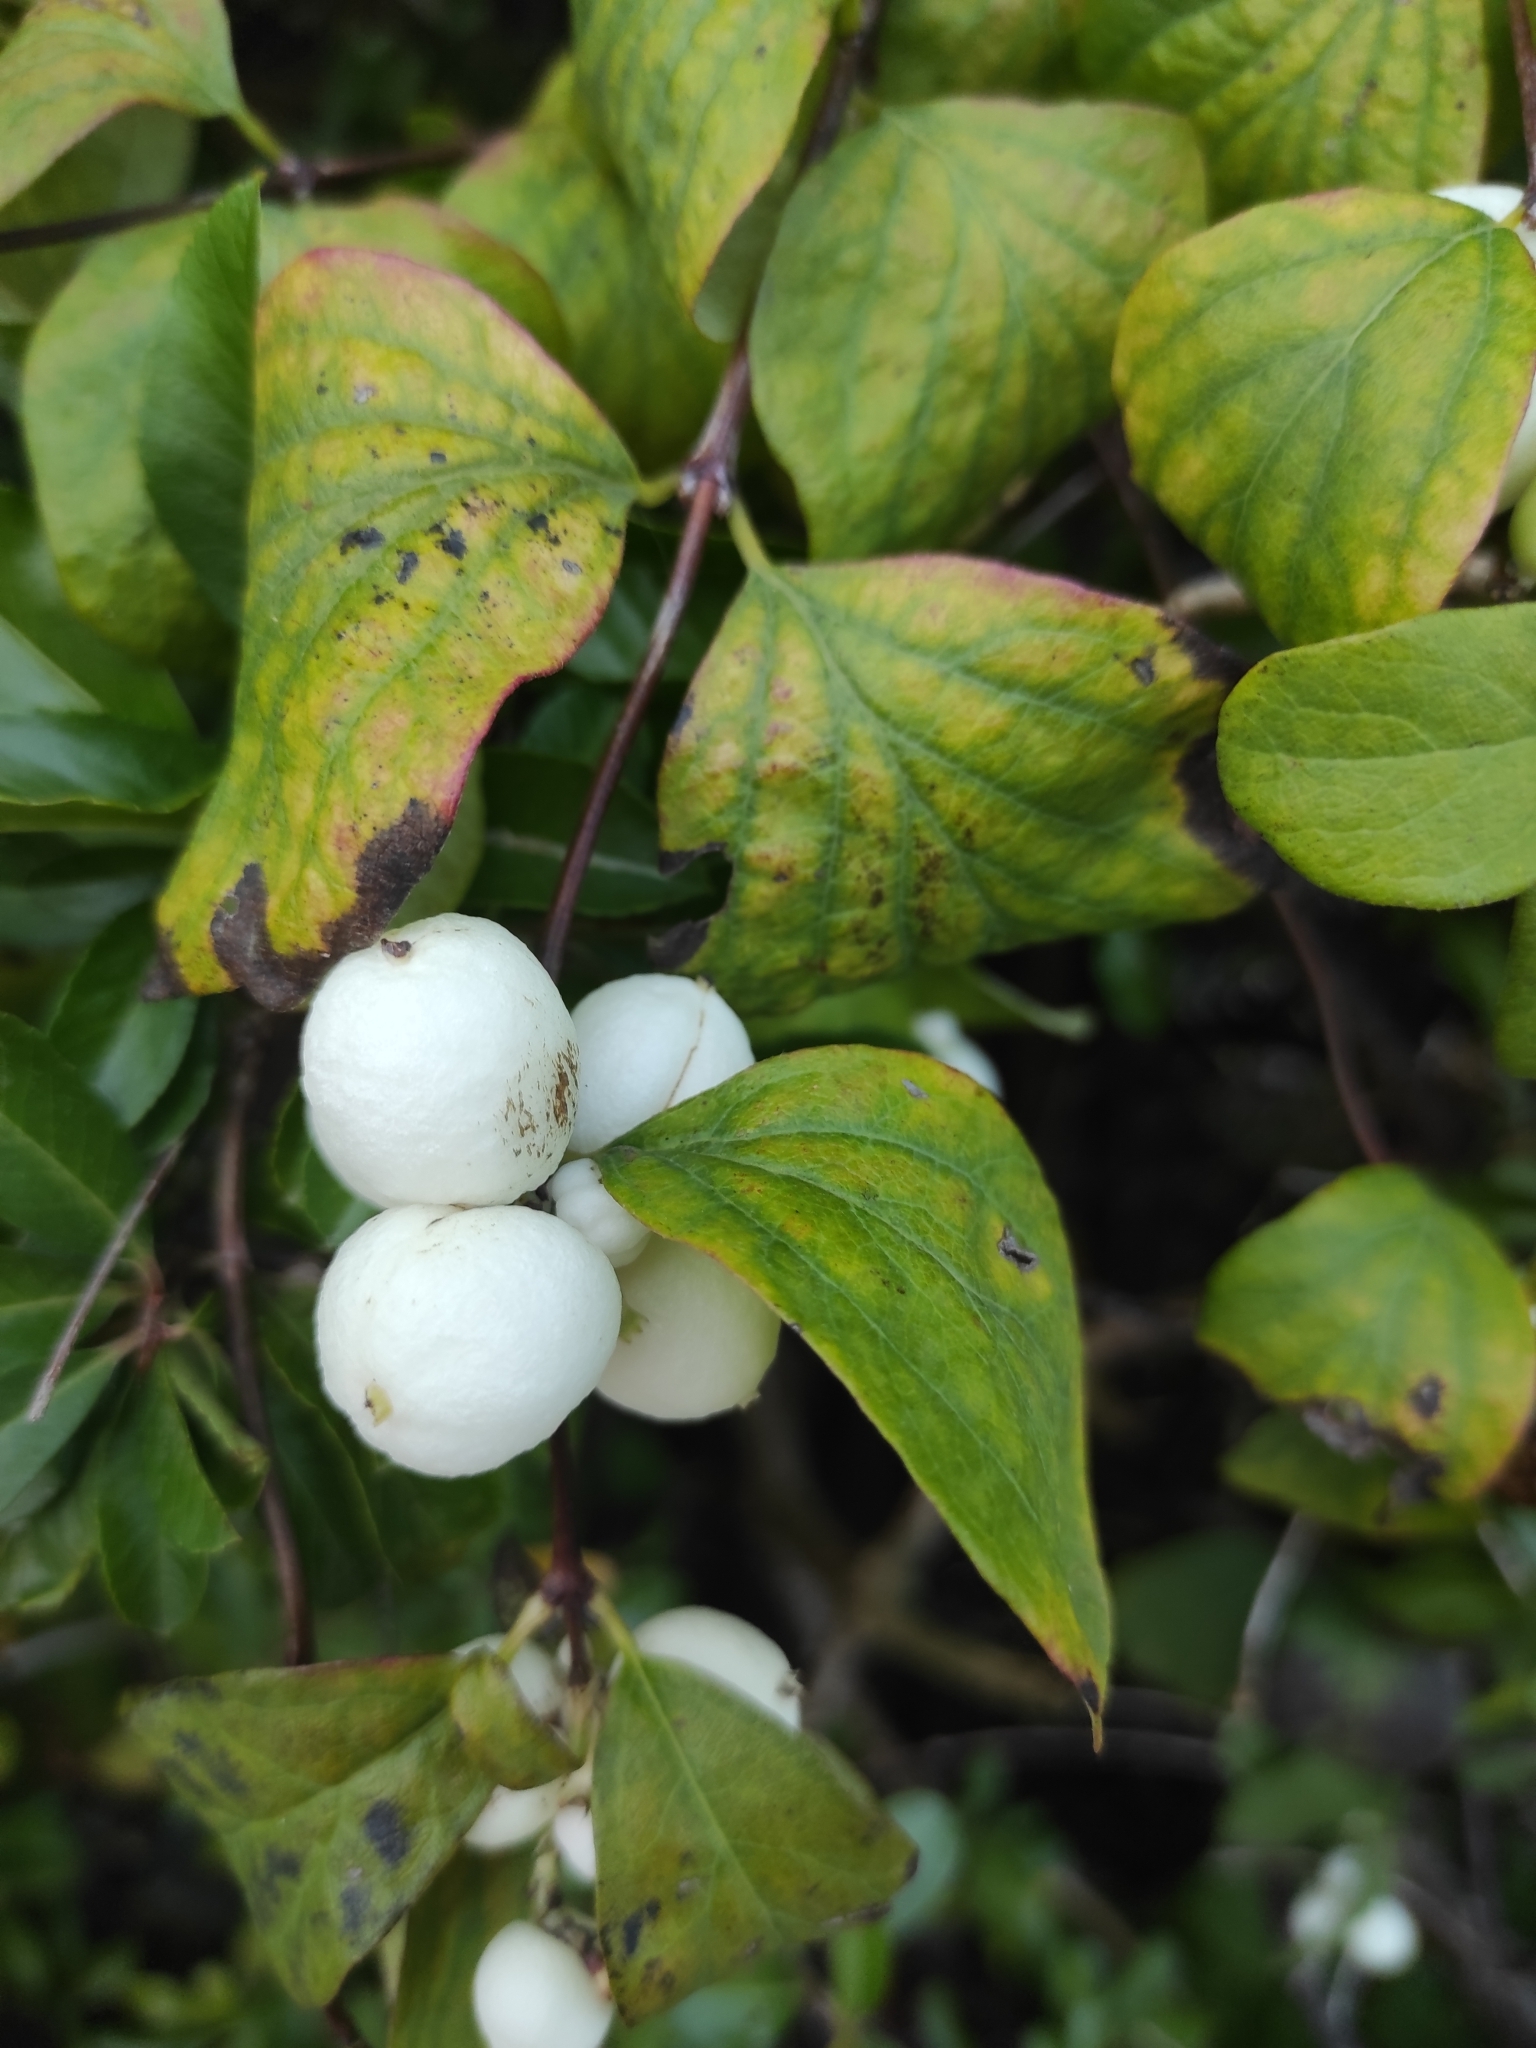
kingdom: Plantae
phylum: Tracheophyta
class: Magnoliopsida
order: Dipsacales
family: Caprifoliaceae
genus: Symphoricarpos
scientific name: Symphoricarpos albus
